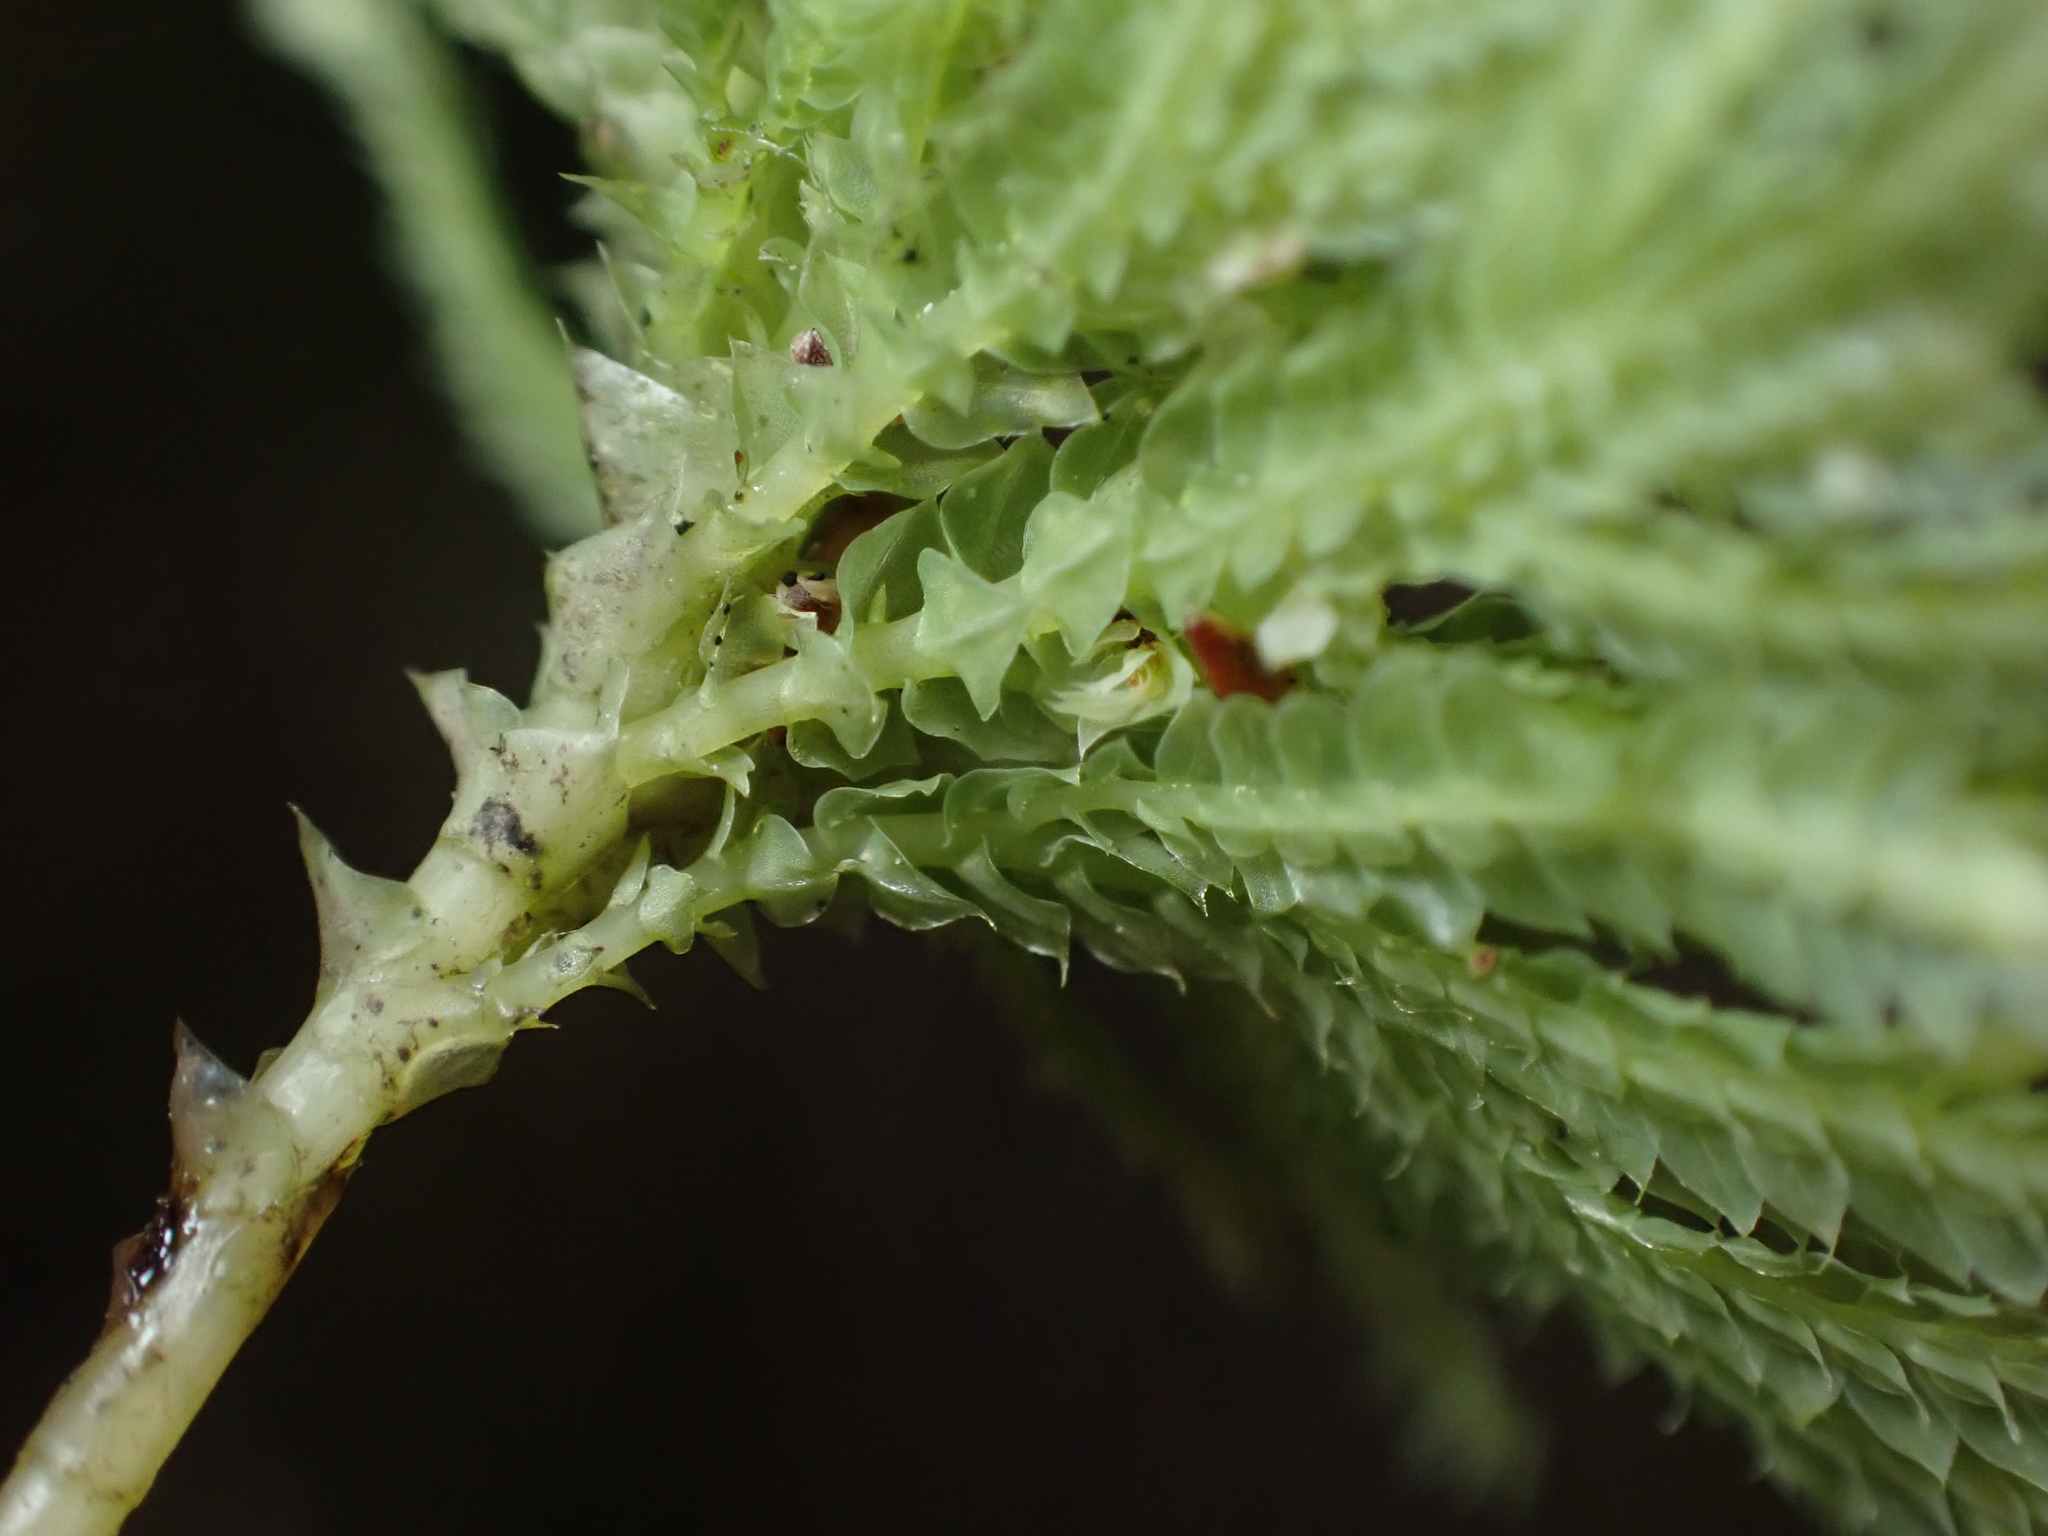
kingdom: Plantae
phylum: Bryophyta
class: Bryopsida
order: Hypopterygiales
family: Hypopterygiaceae
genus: Hypopterygium
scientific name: Hypopterygium tamarisci
